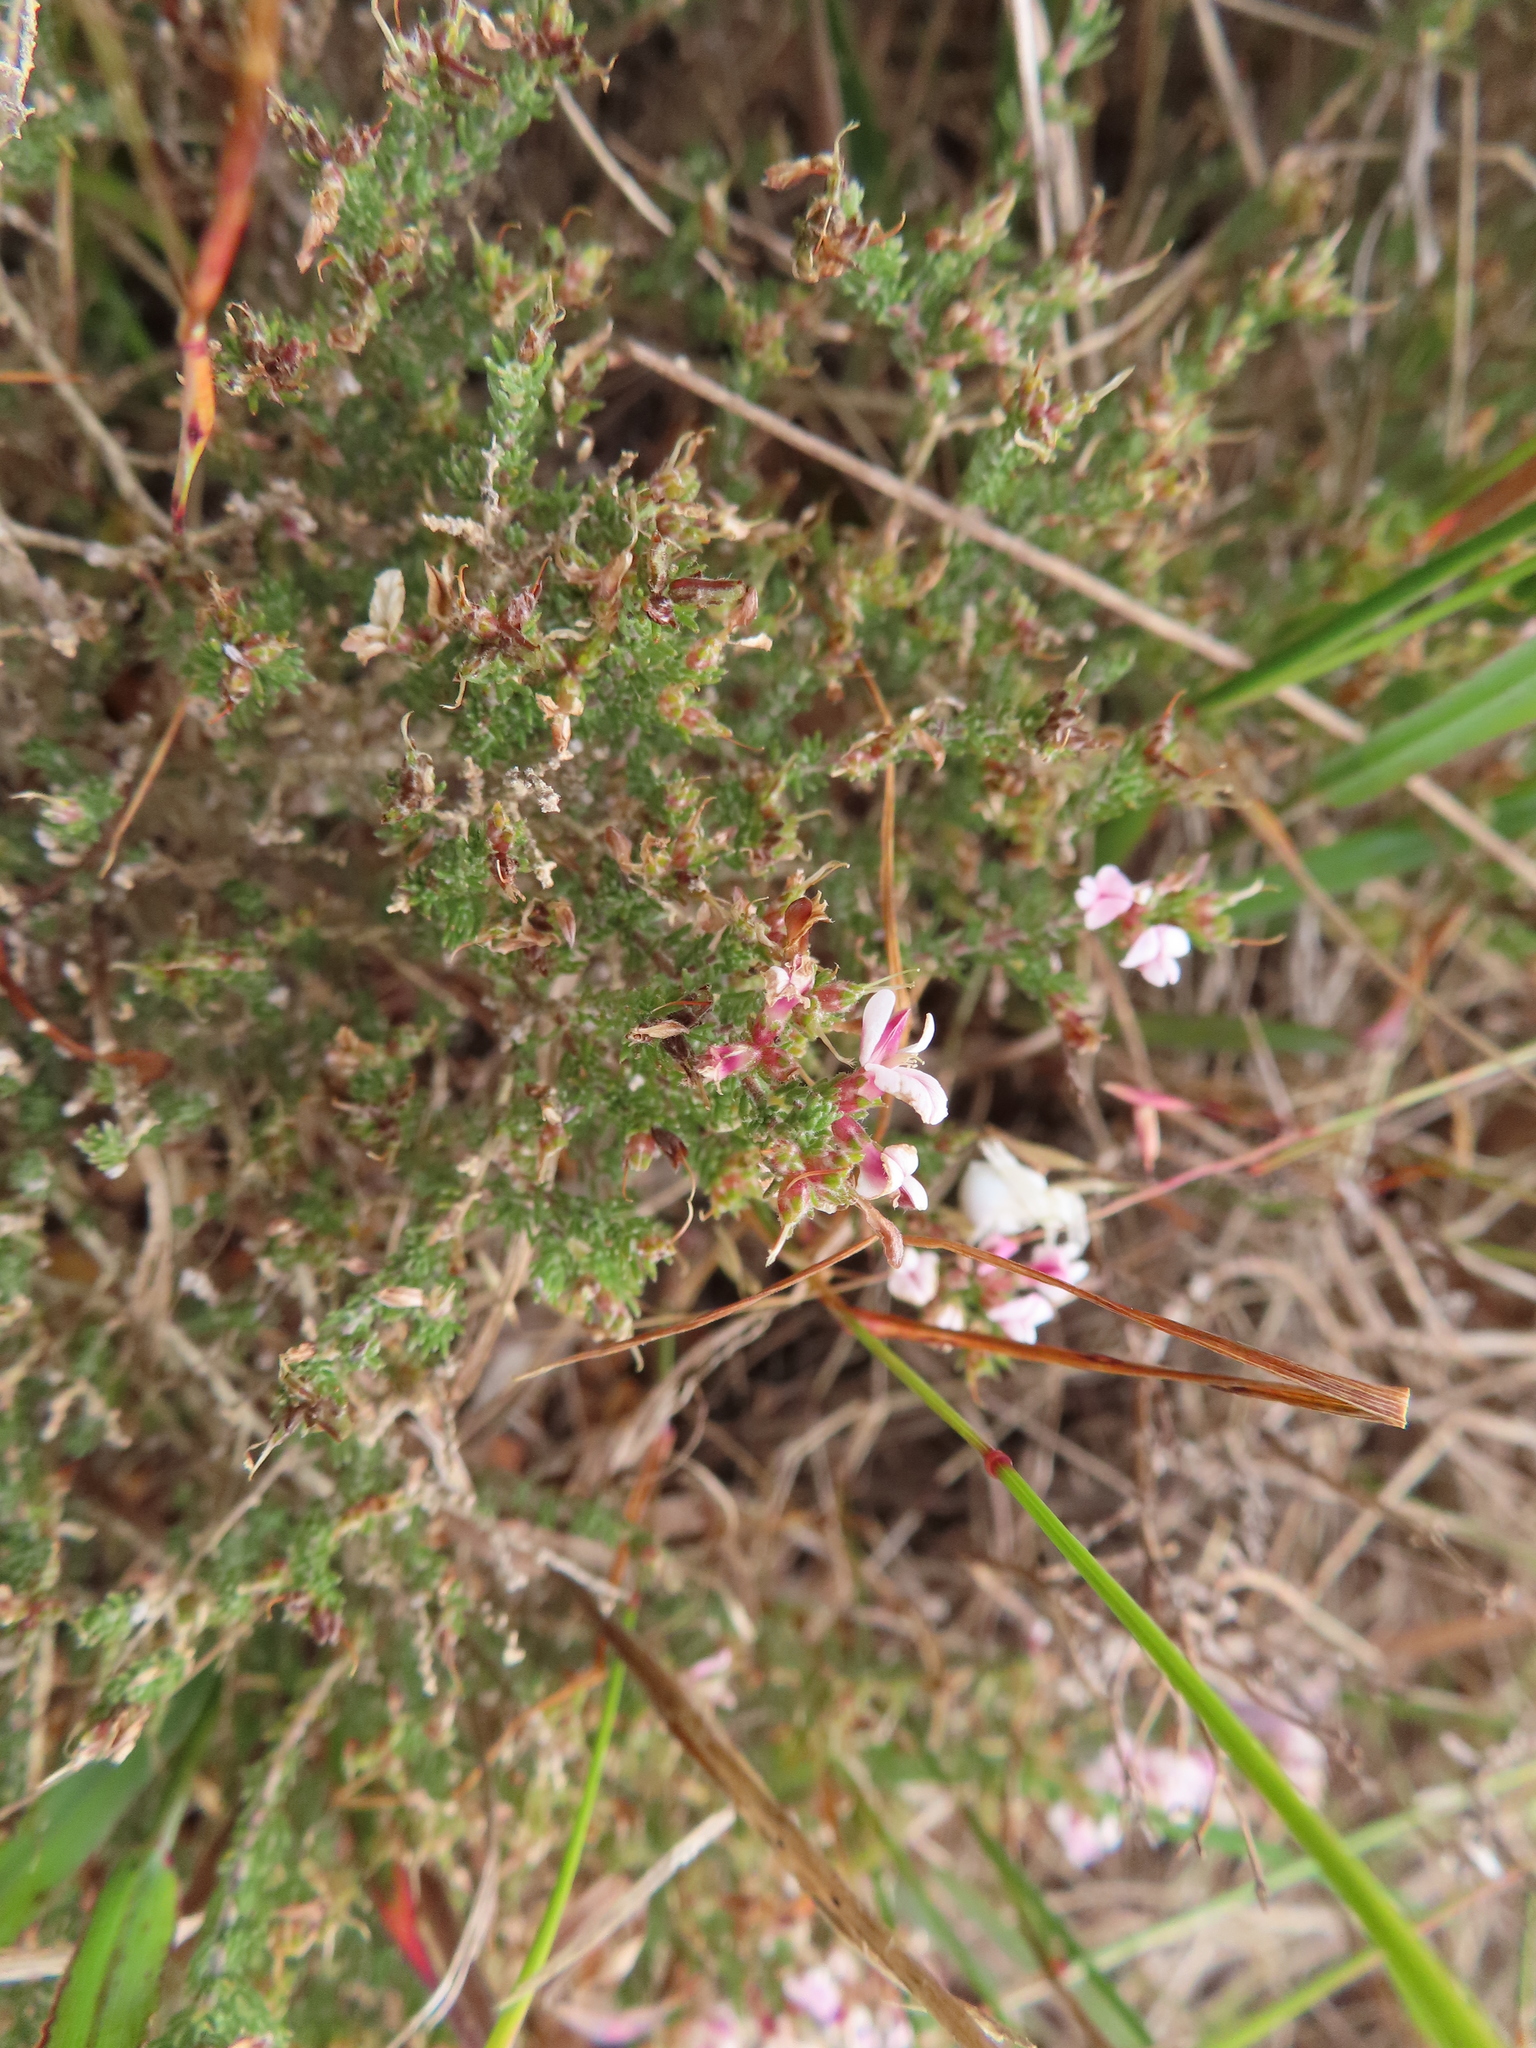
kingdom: Plantae
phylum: Tracheophyta
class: Magnoliopsida
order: Fabales
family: Fabaceae
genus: Aspalathus
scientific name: Aspalathus submissa
